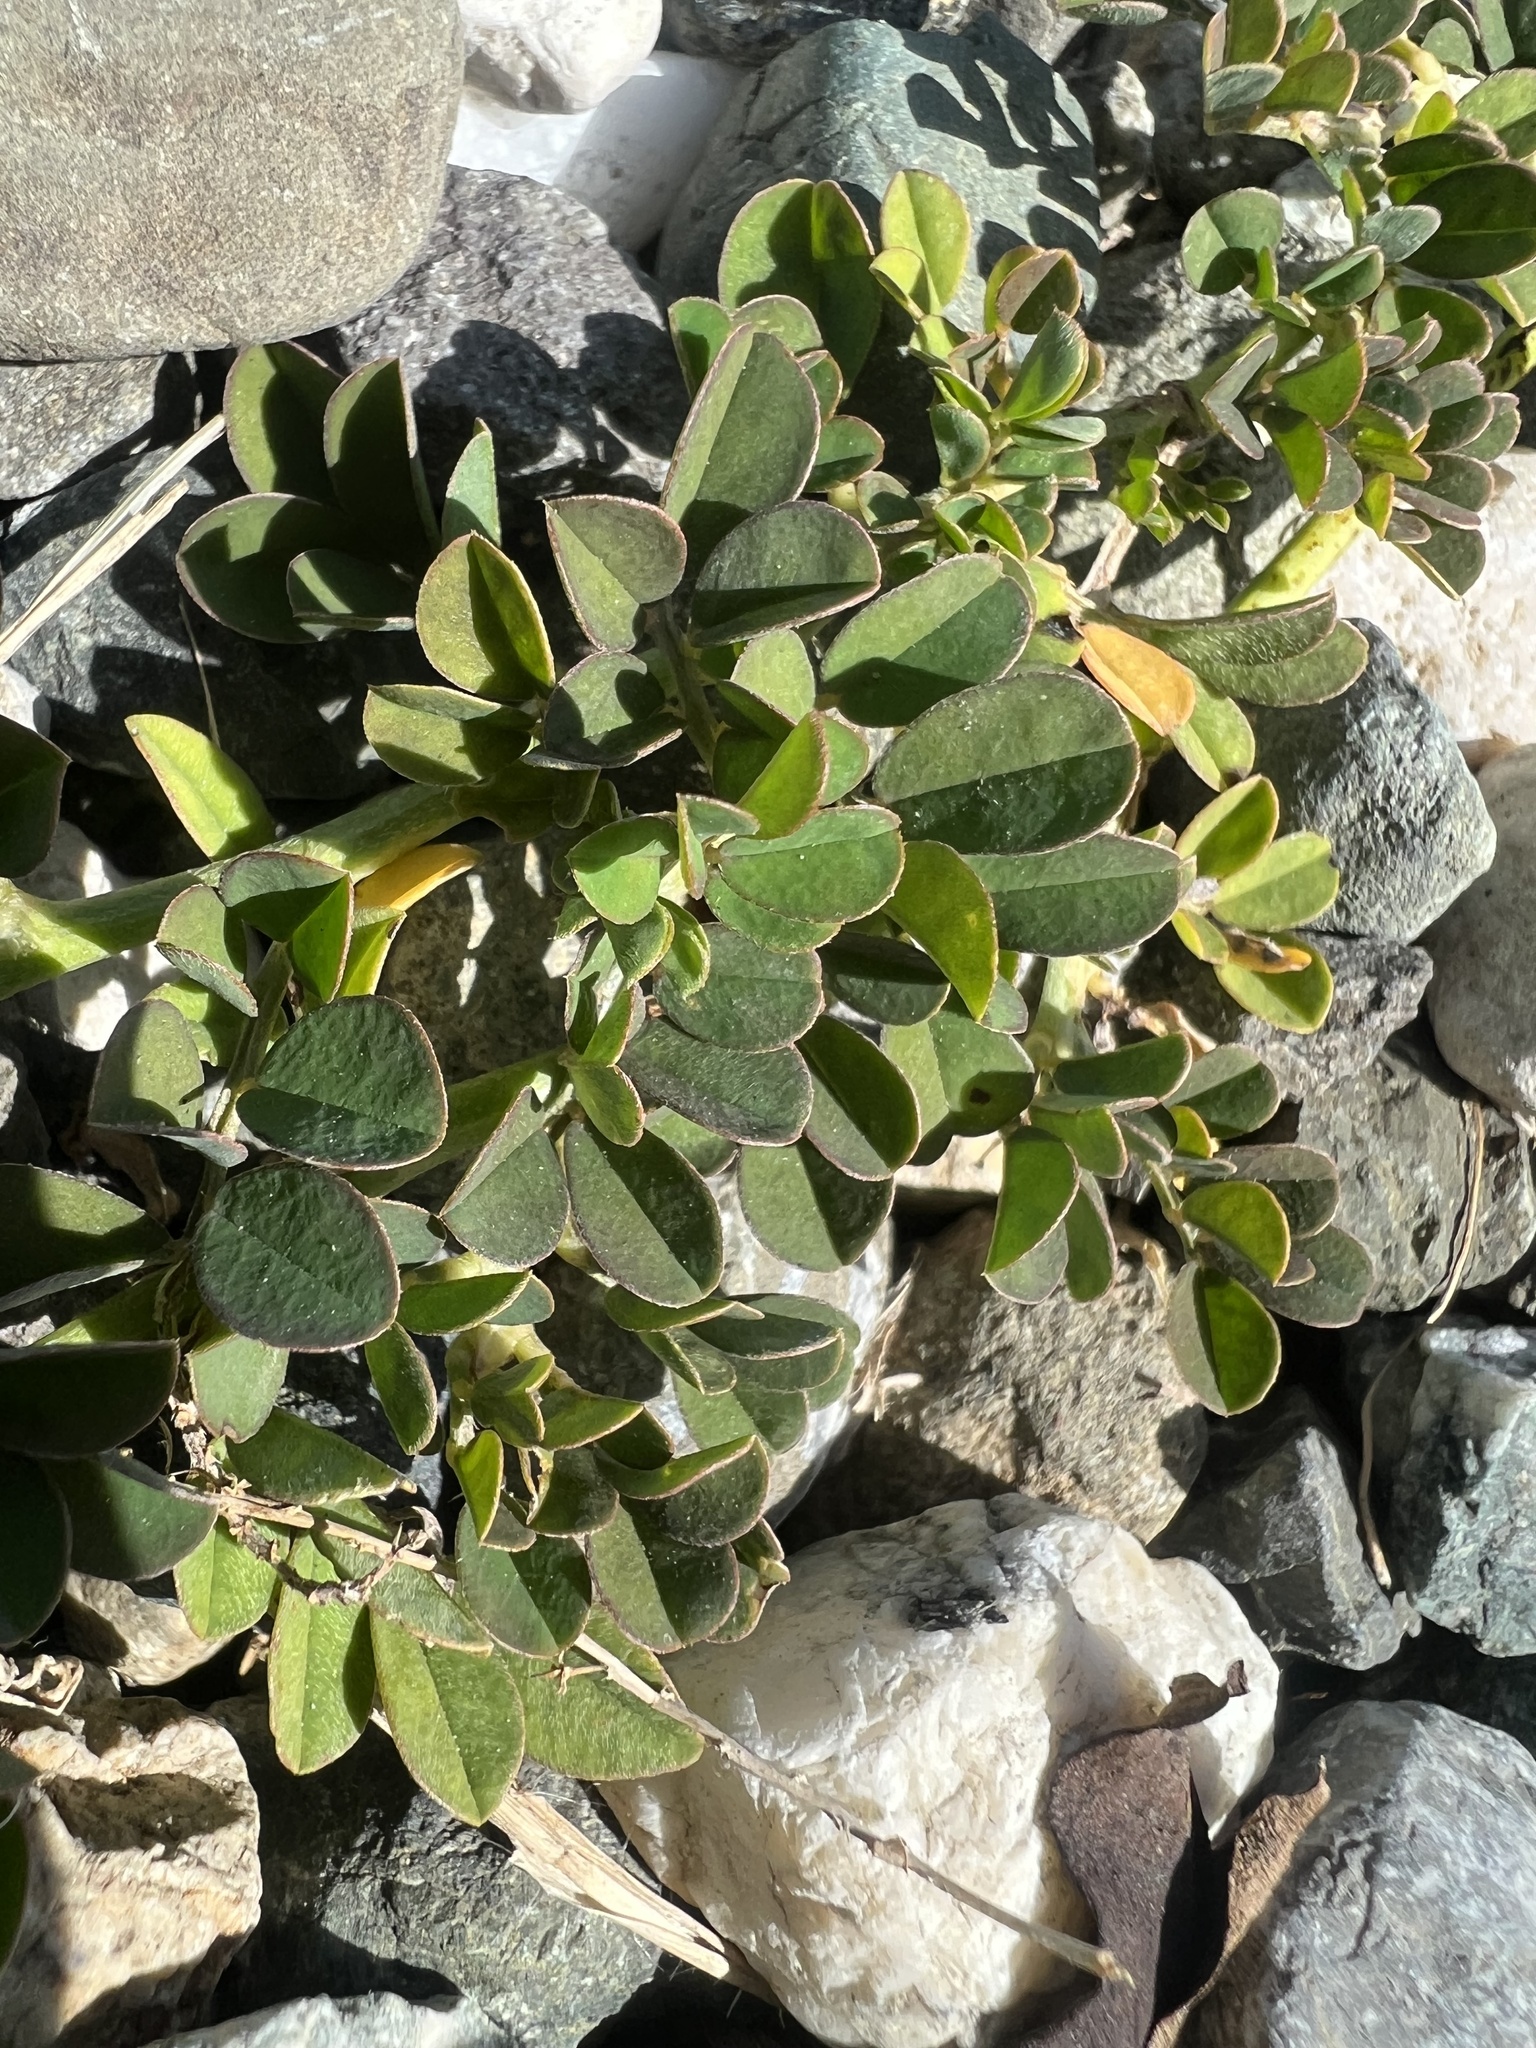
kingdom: Plantae
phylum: Tracheophyta
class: Magnoliopsida
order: Fabales
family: Fabaceae
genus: Indigofera
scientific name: Indigofera spicata
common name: Creeping indigo
